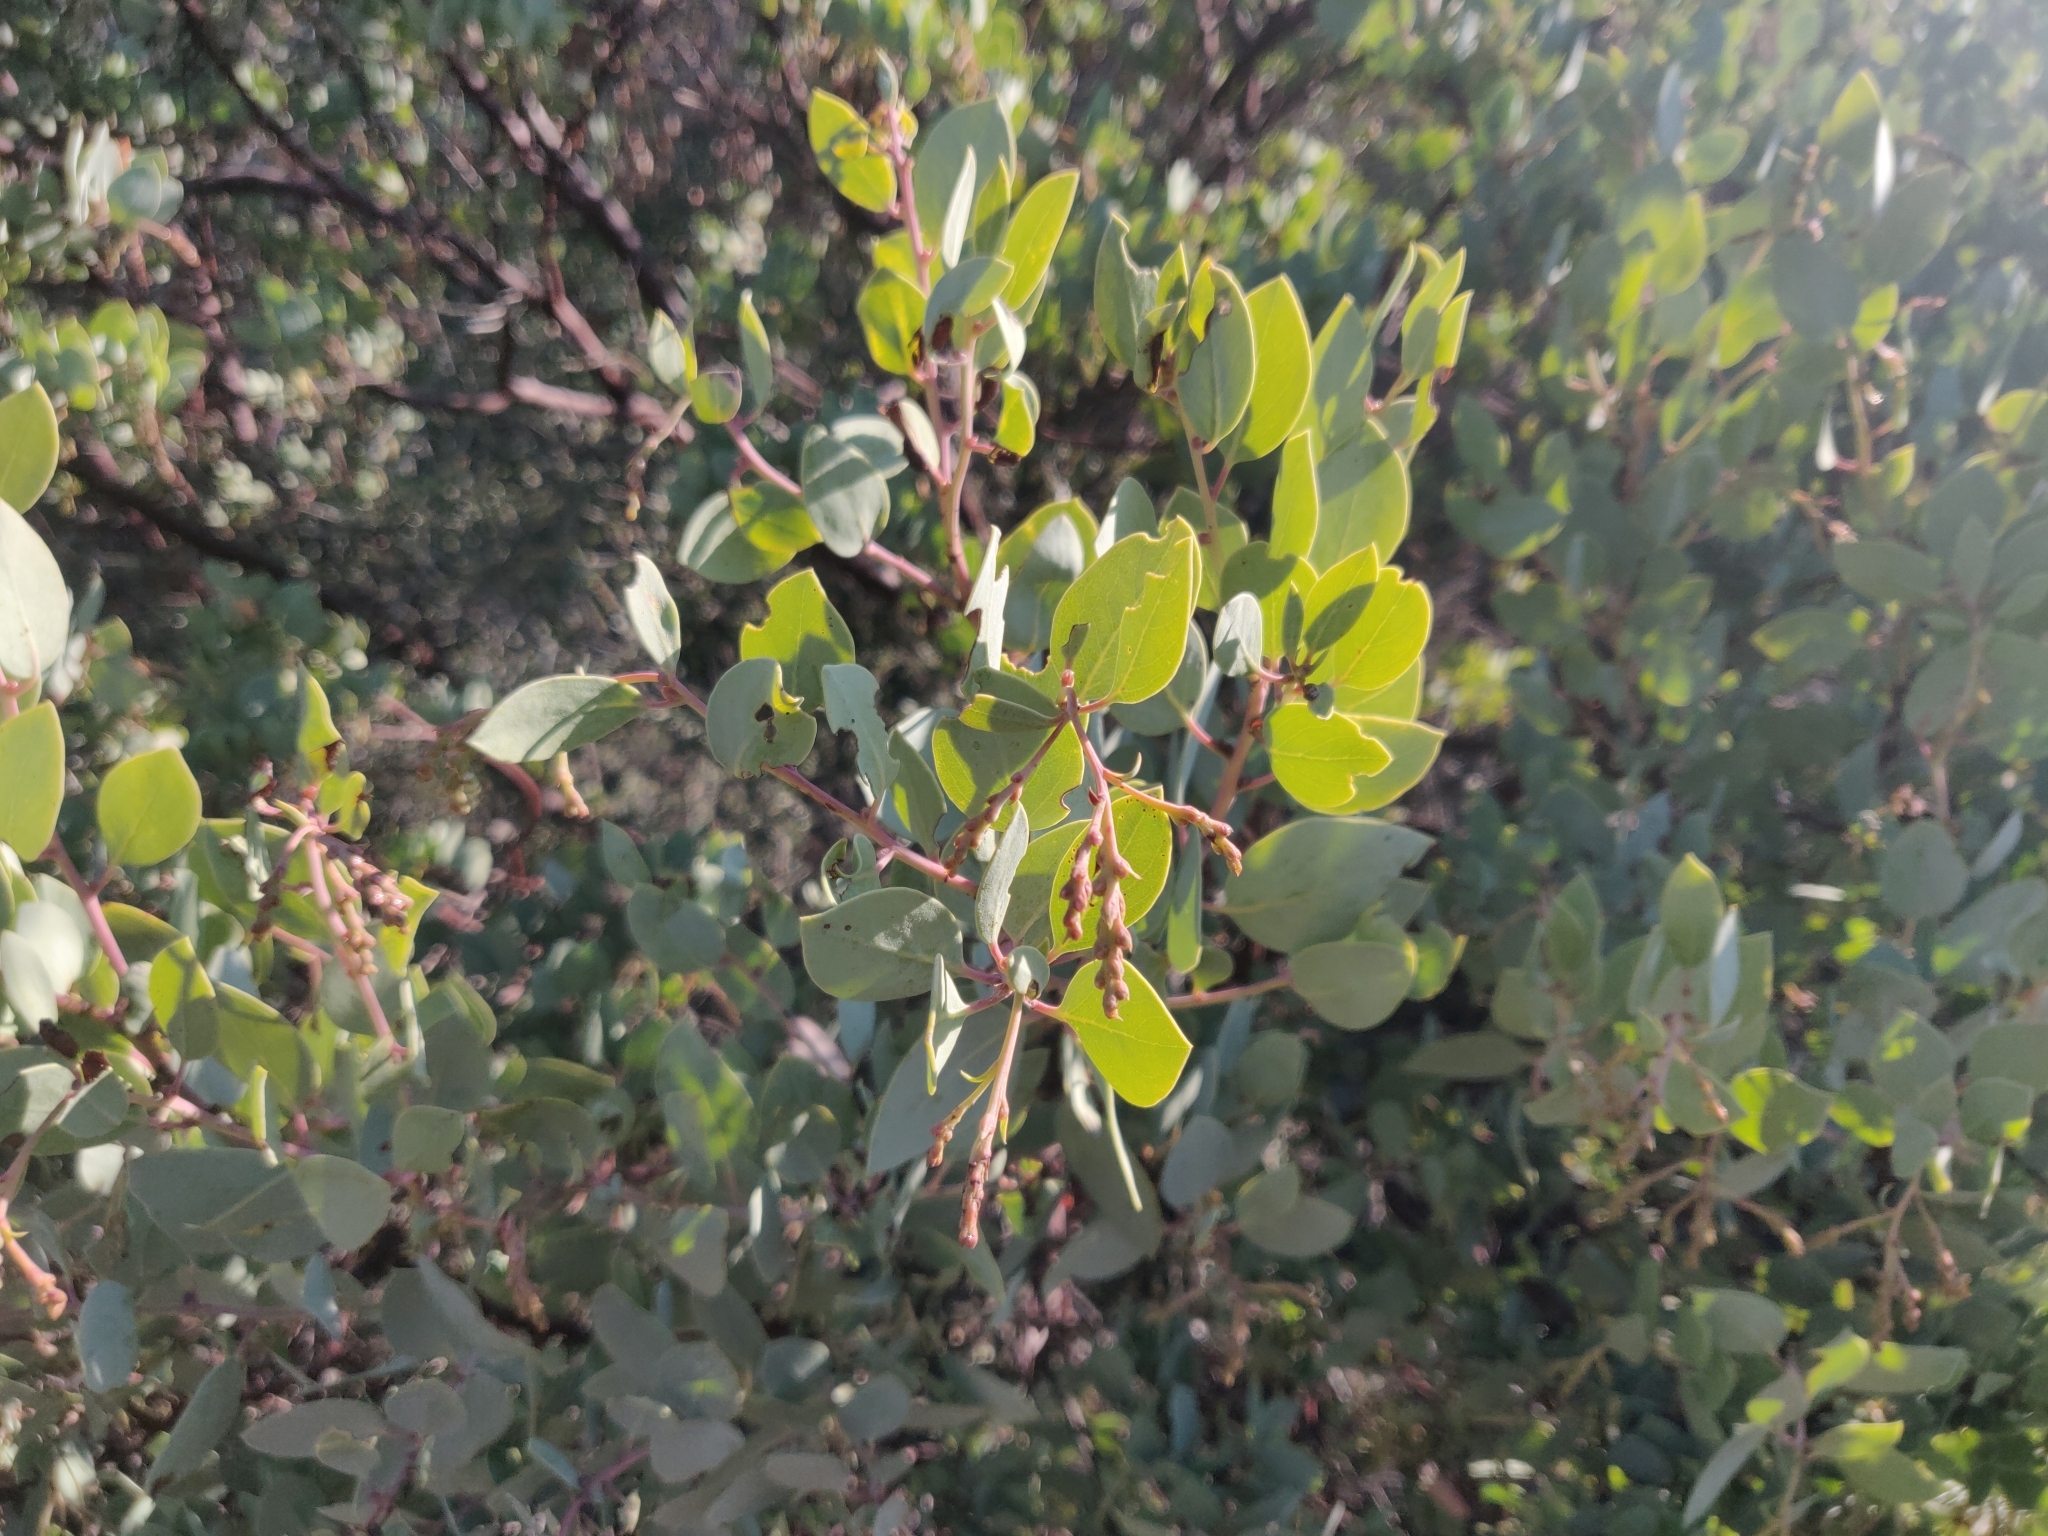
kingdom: Plantae
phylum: Tracheophyta
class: Magnoliopsida
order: Ericales
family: Ericaceae
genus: Arctostaphylos
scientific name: Arctostaphylos viscida
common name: White-leaf manzanita
